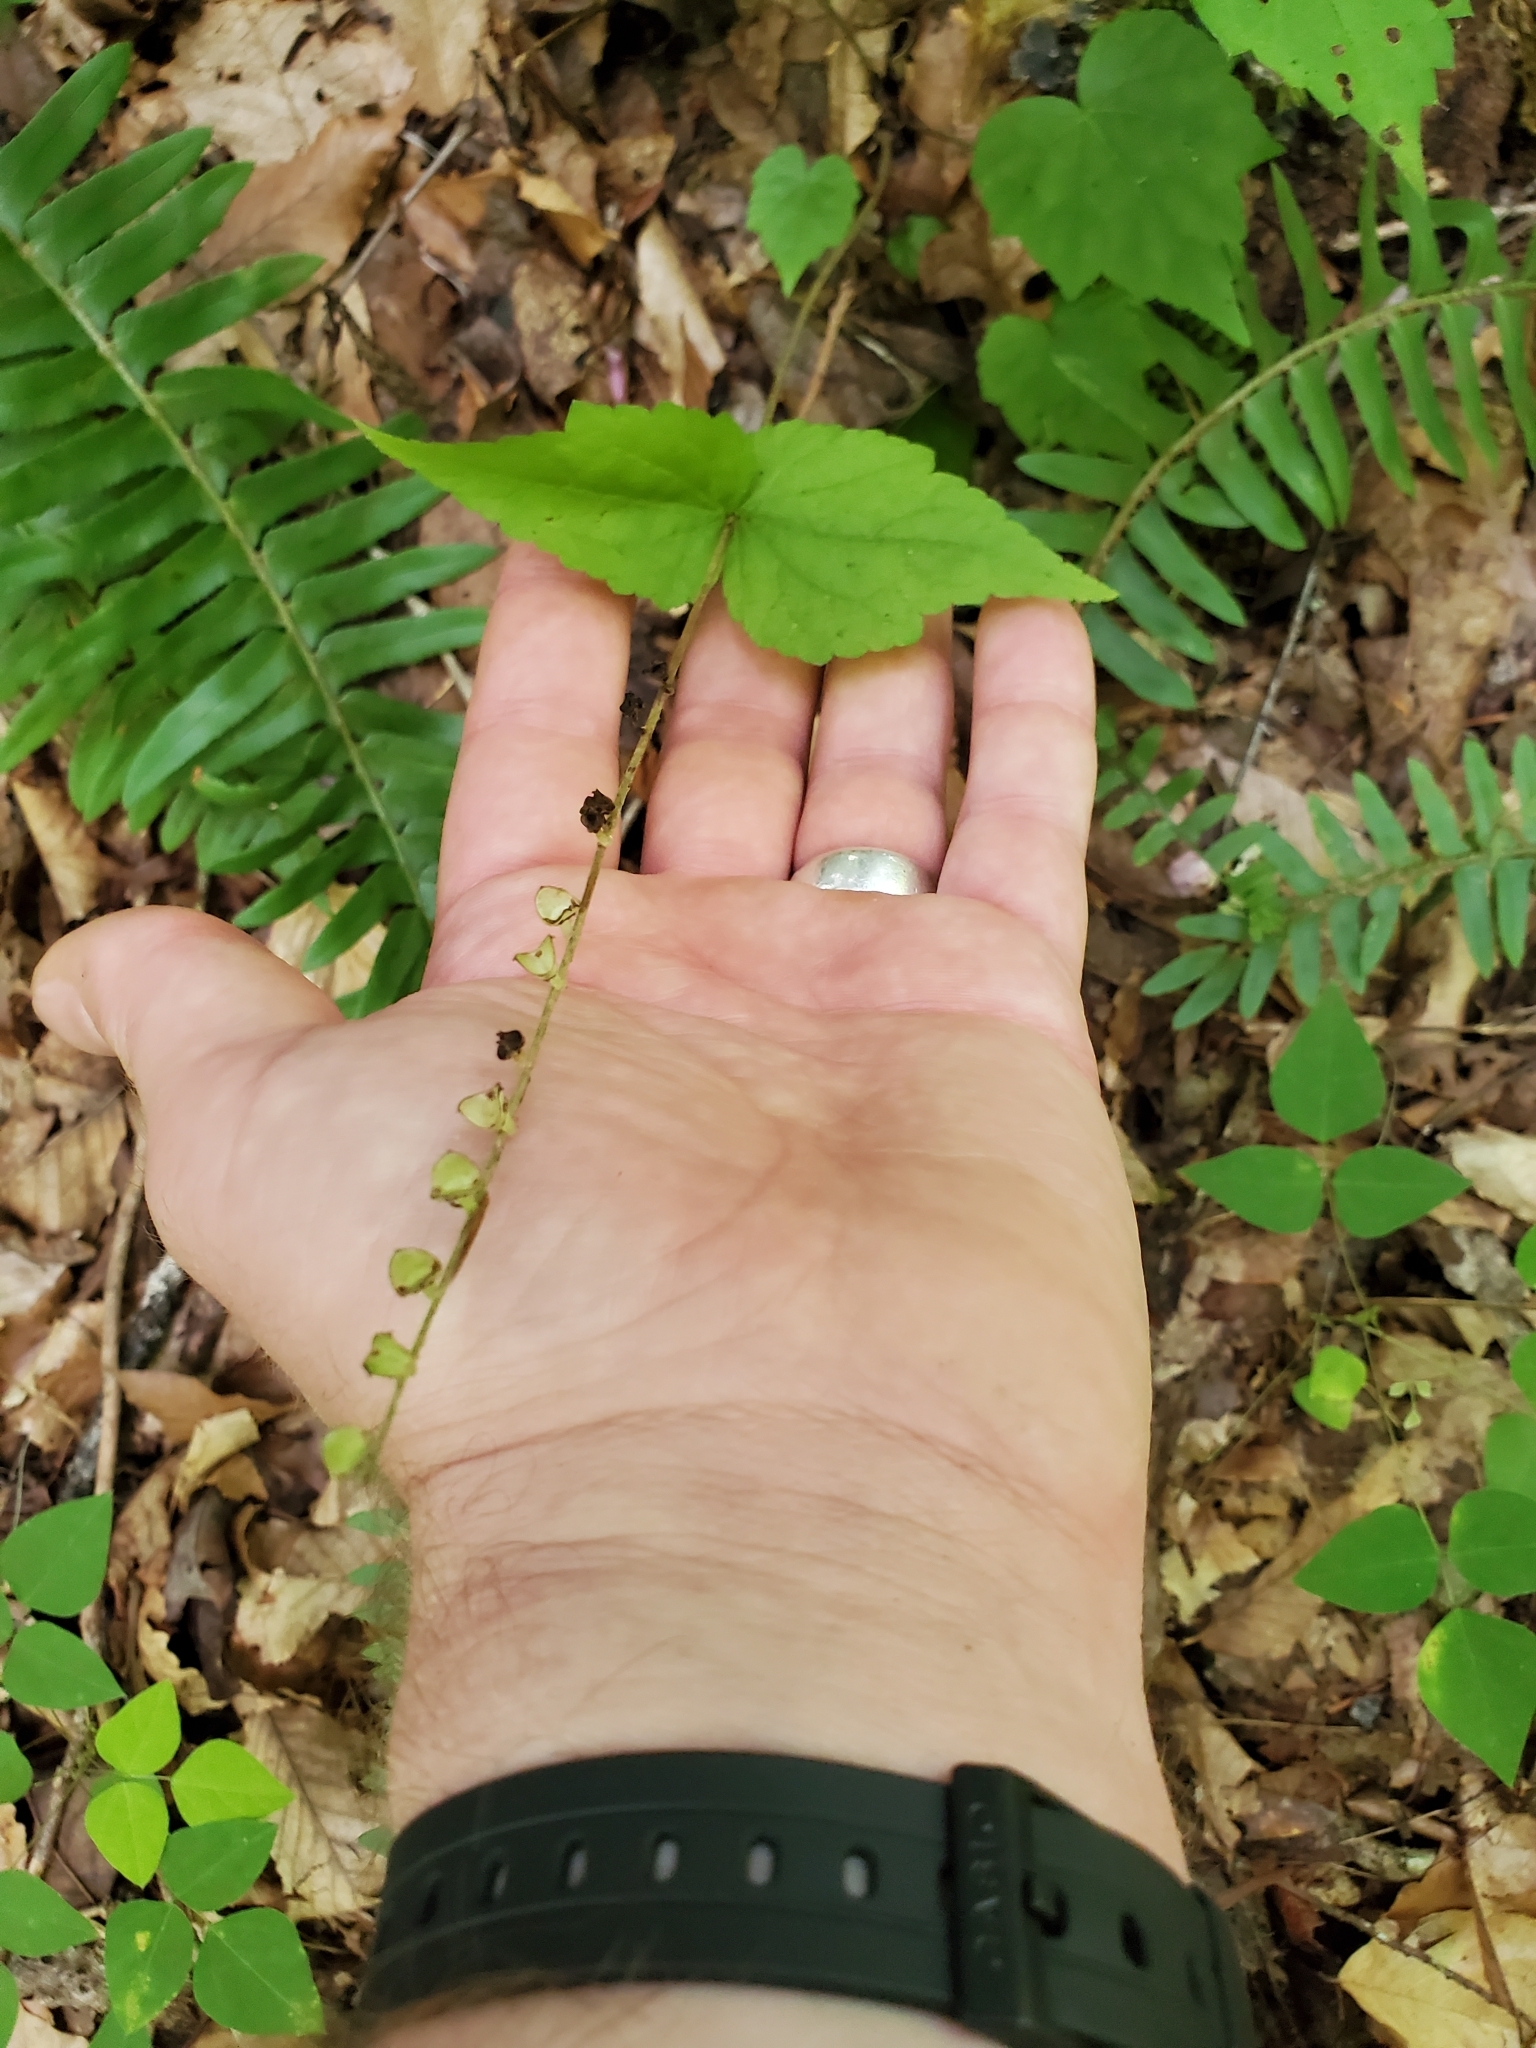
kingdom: Plantae
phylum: Tracheophyta
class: Magnoliopsida
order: Saxifragales
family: Saxifragaceae
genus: Mitella
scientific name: Mitella diphylla
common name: Coolwort
